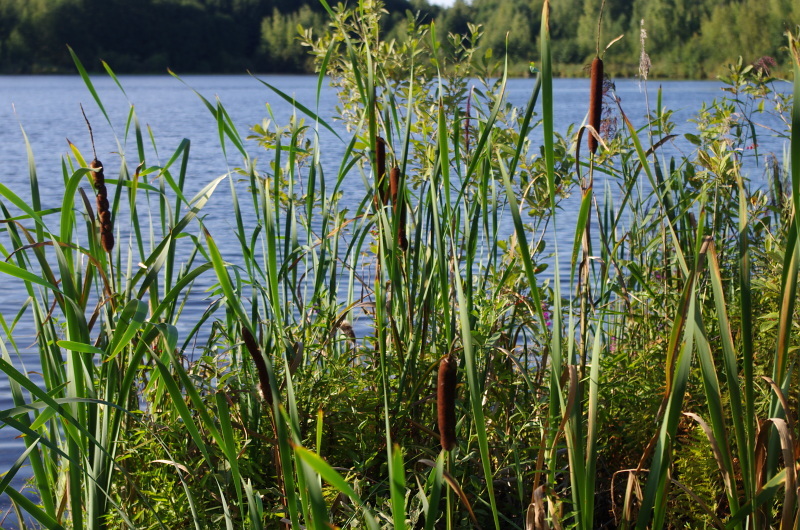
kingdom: Plantae
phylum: Tracheophyta
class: Liliopsida
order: Poales
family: Typhaceae
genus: Typha
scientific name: Typha latifolia
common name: Broadleaf cattail
